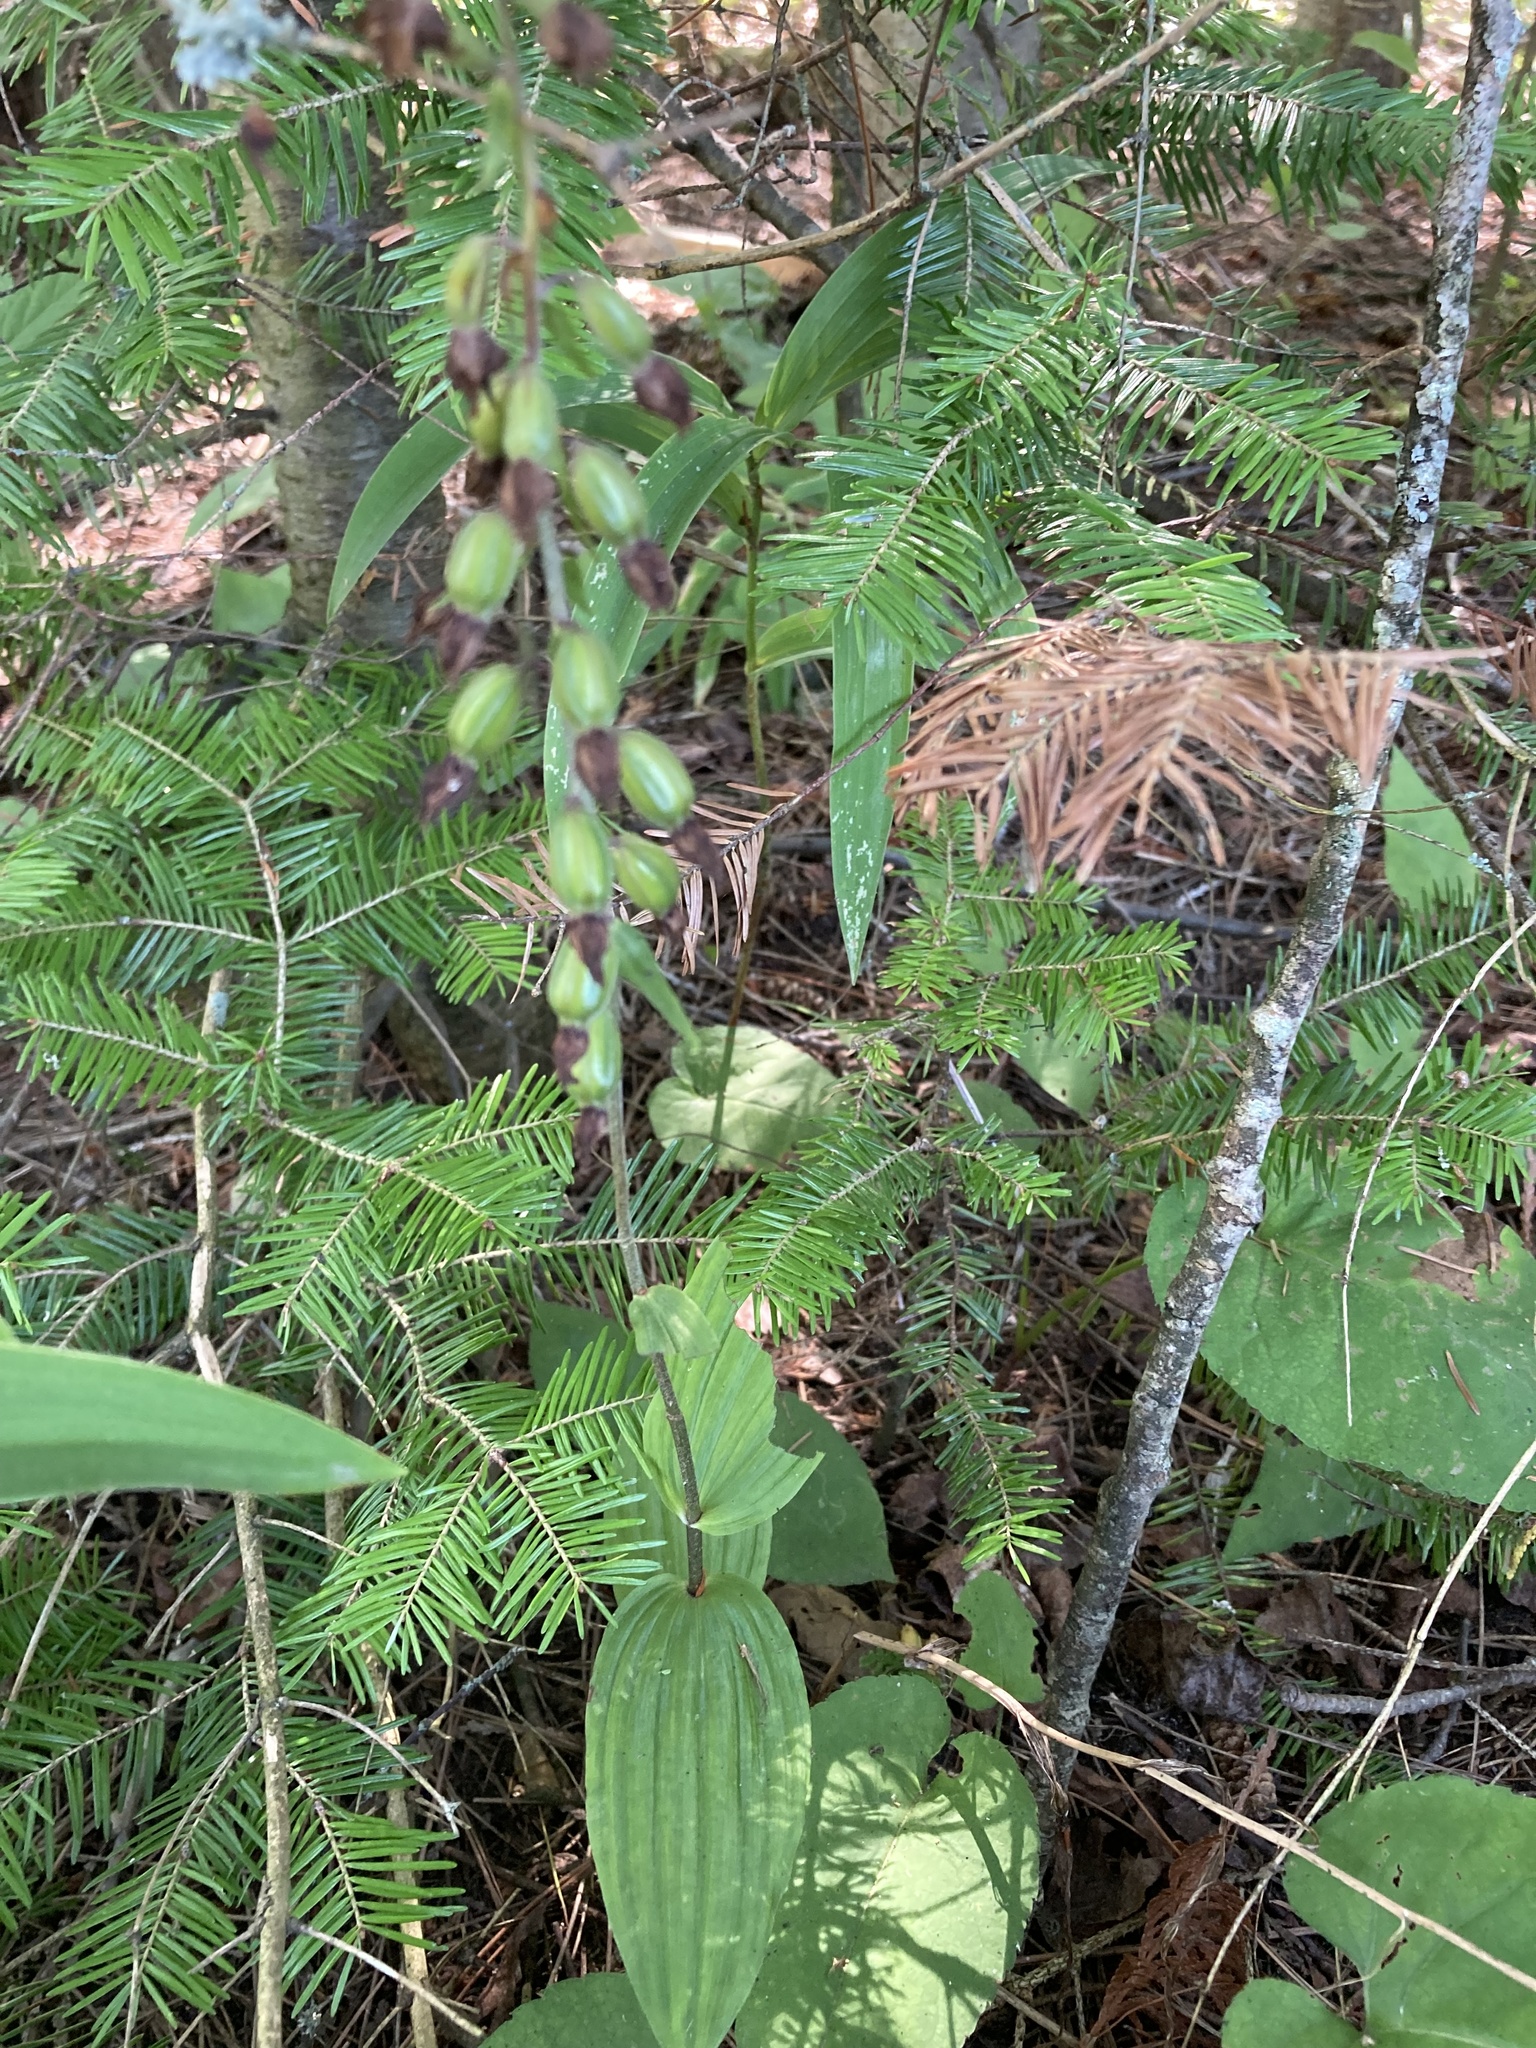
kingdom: Plantae
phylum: Tracheophyta
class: Liliopsida
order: Asparagales
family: Orchidaceae
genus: Epipactis
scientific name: Epipactis helleborine
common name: Broad-leaved helleborine
